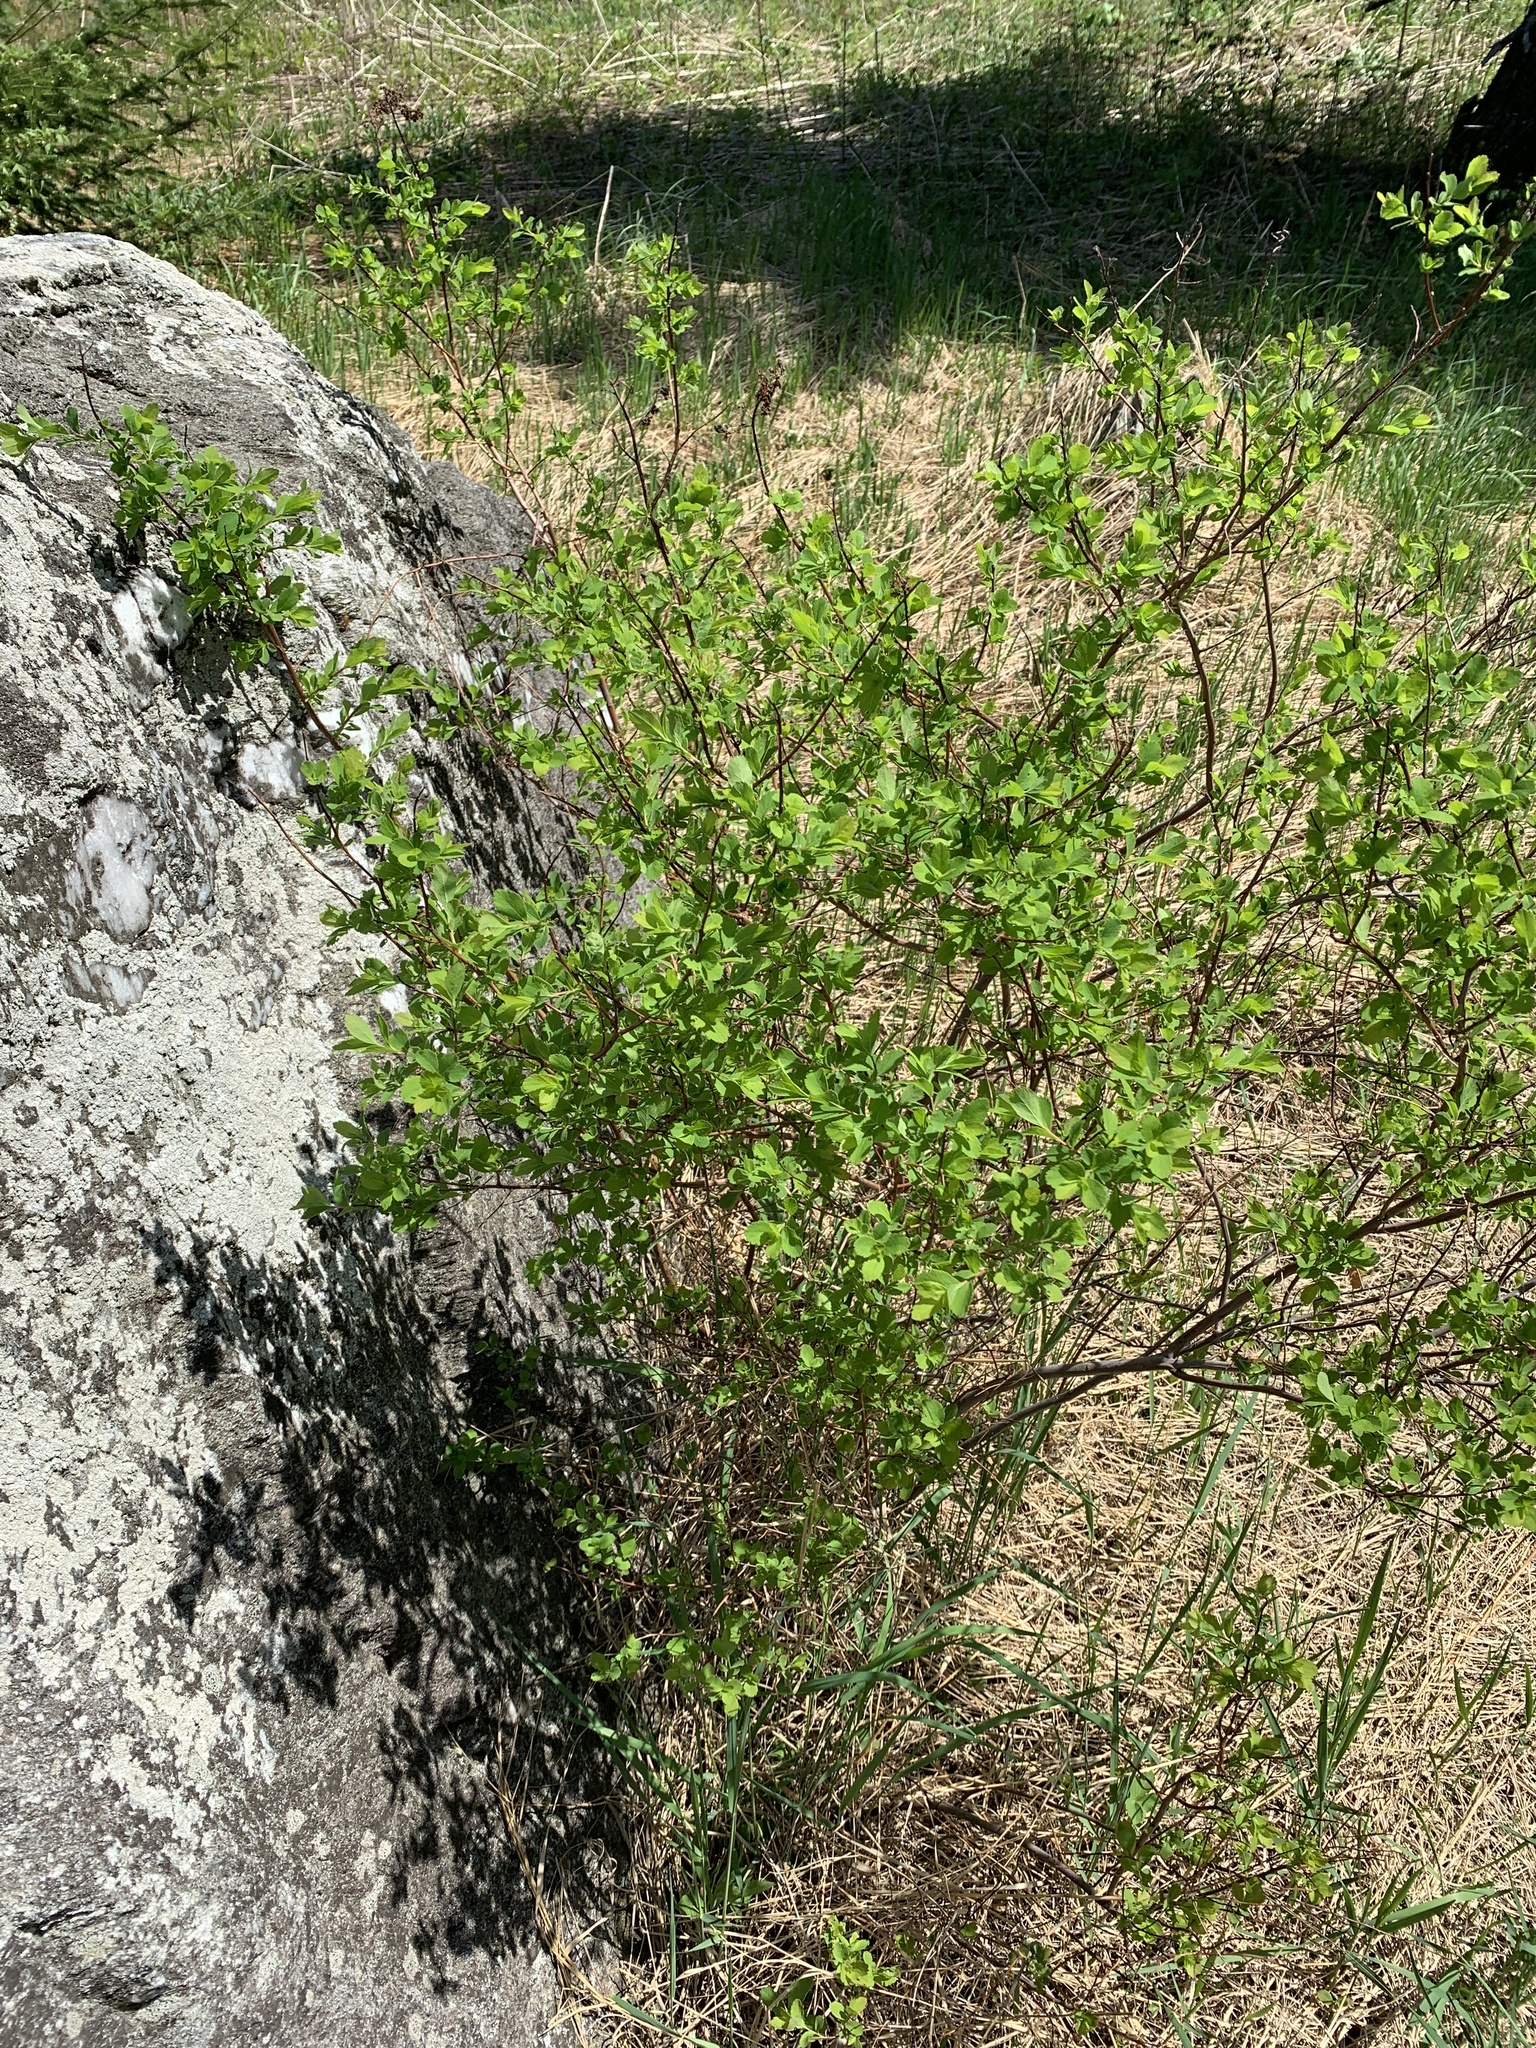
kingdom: Plantae
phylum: Tracheophyta
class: Magnoliopsida
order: Rosales
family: Rosaceae
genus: Spiraea
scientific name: Spiraea alba
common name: Pale bridewort
